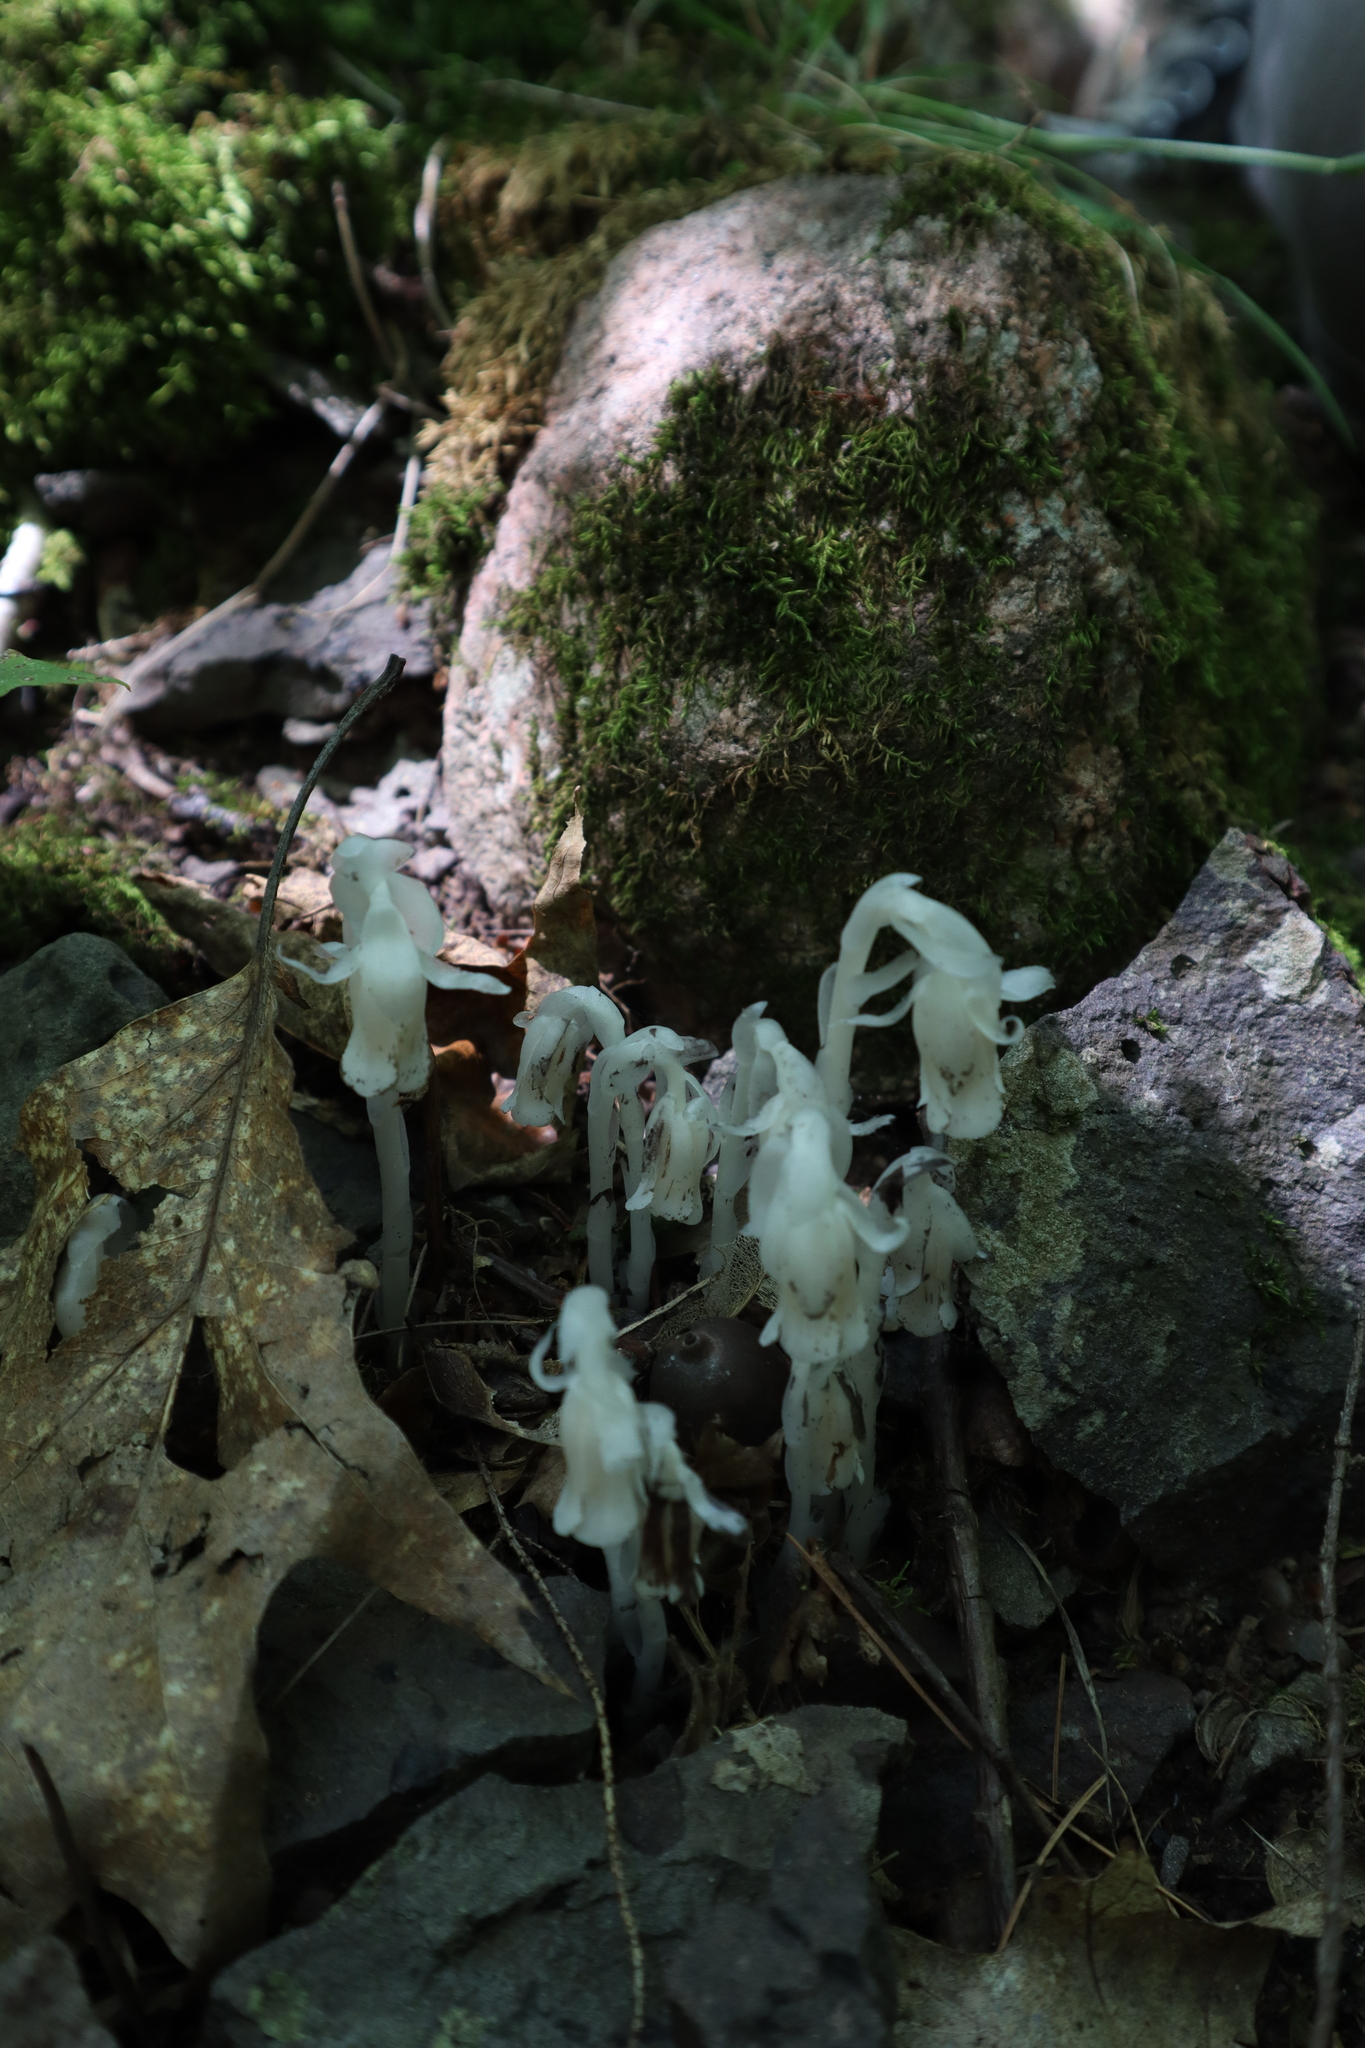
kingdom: Plantae
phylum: Tracheophyta
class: Magnoliopsida
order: Ericales
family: Ericaceae
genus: Monotropa
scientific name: Monotropa uniflora
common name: Convulsion root
